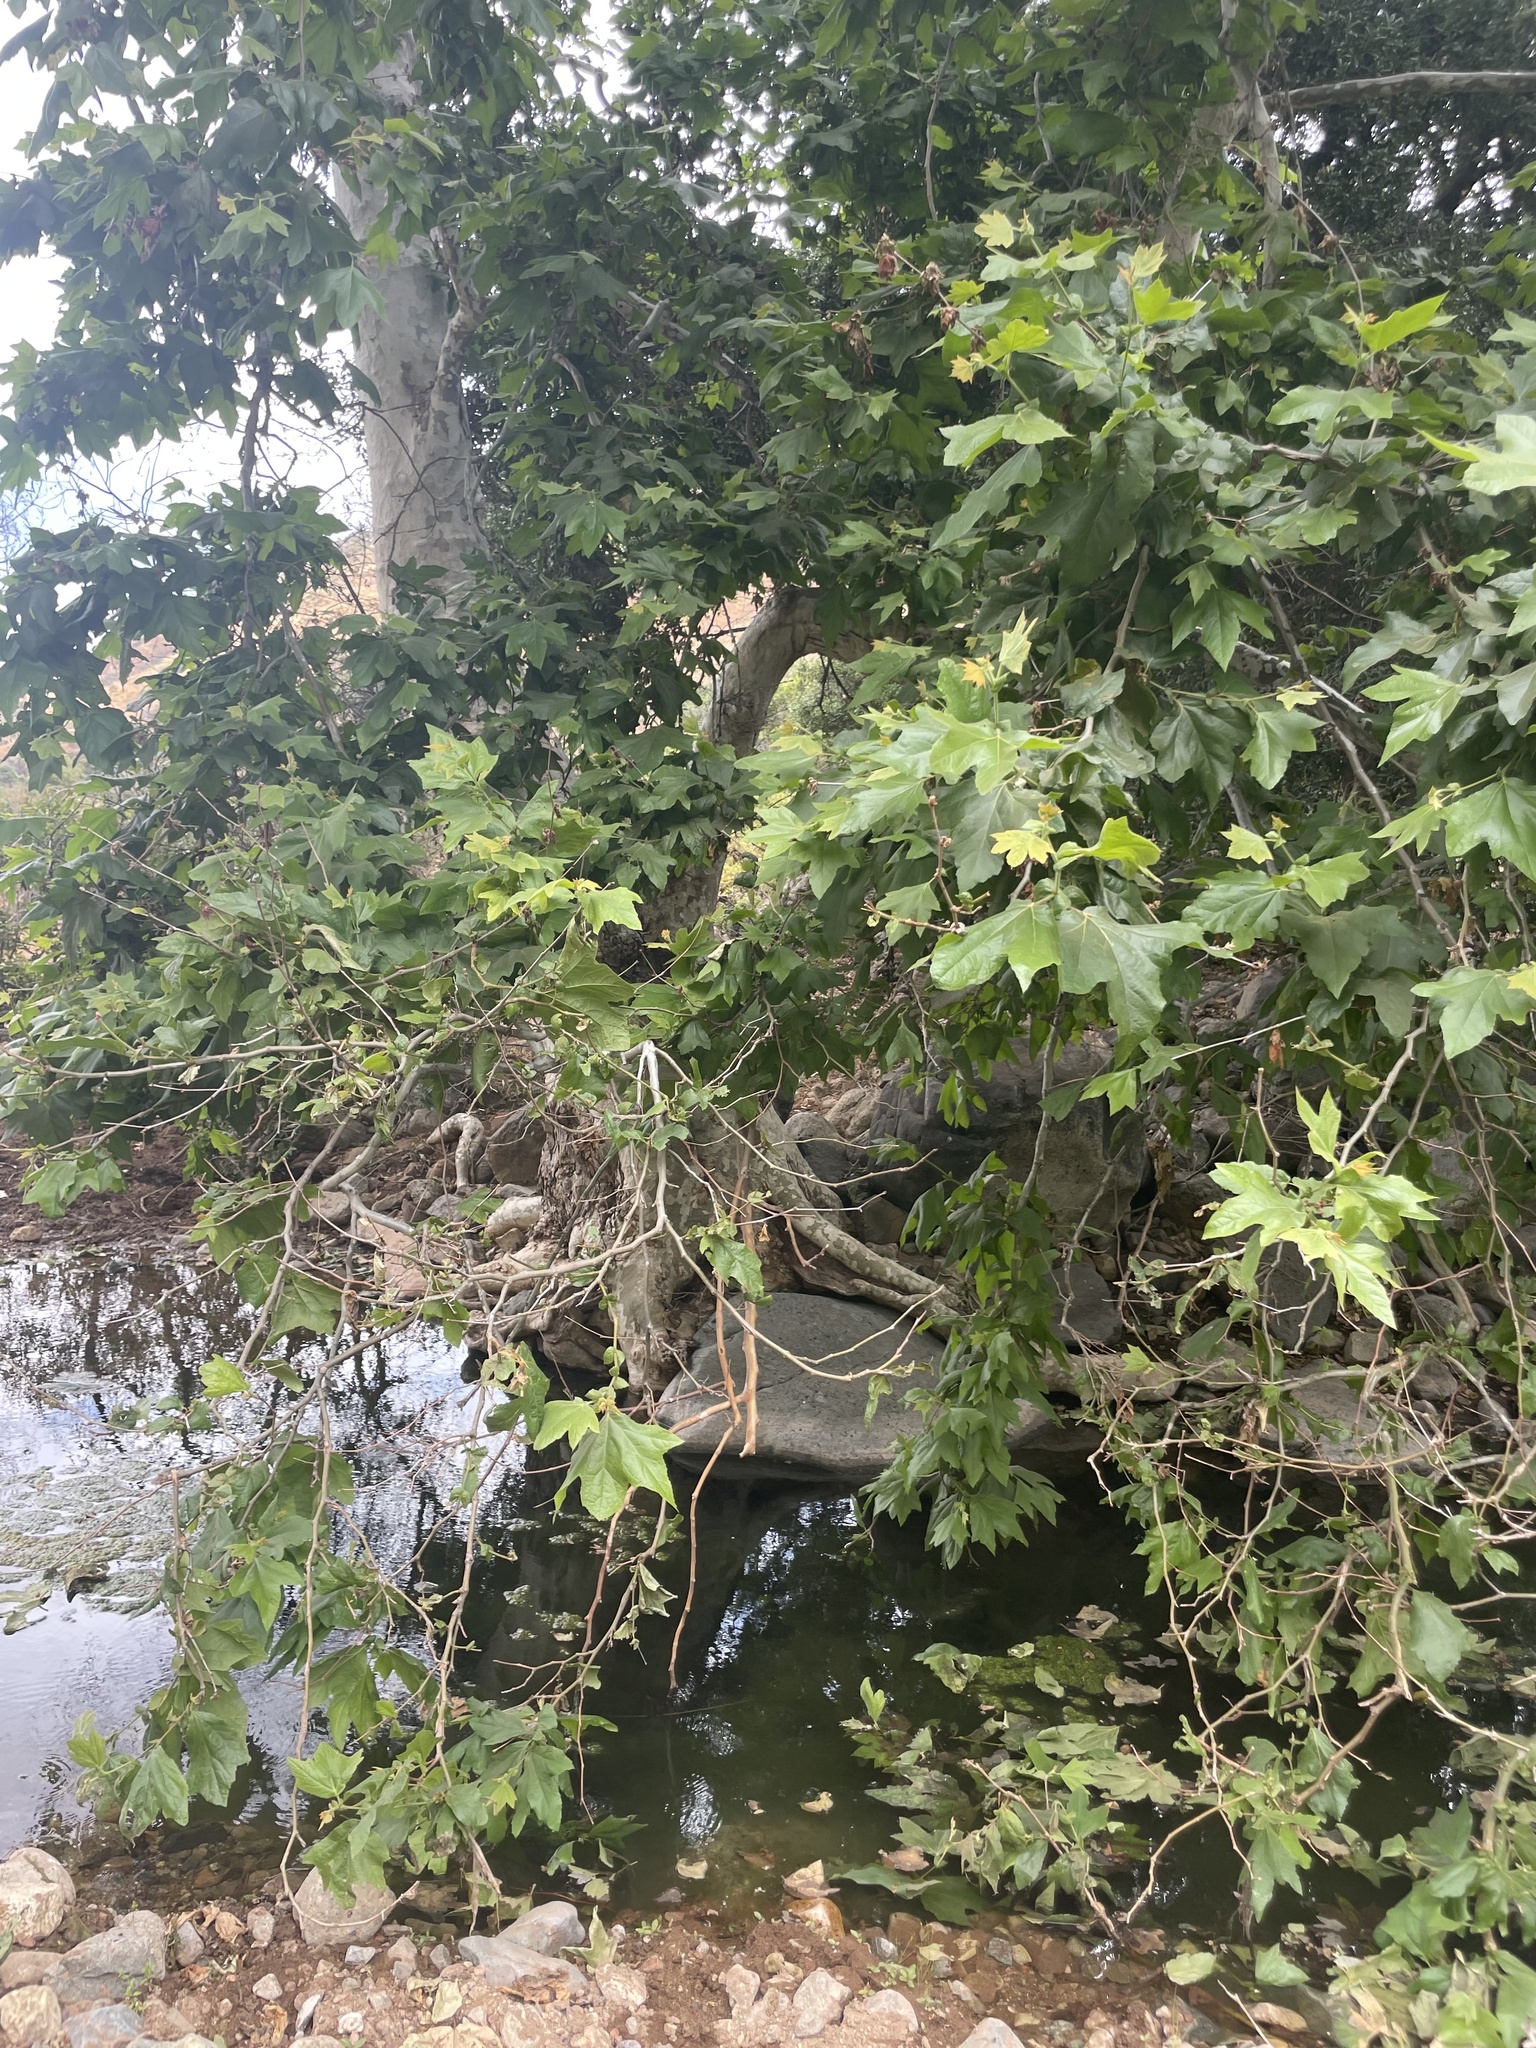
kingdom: Plantae
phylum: Tracheophyta
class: Magnoliopsida
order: Proteales
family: Platanaceae
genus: Platanus
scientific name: Platanus racemosa
